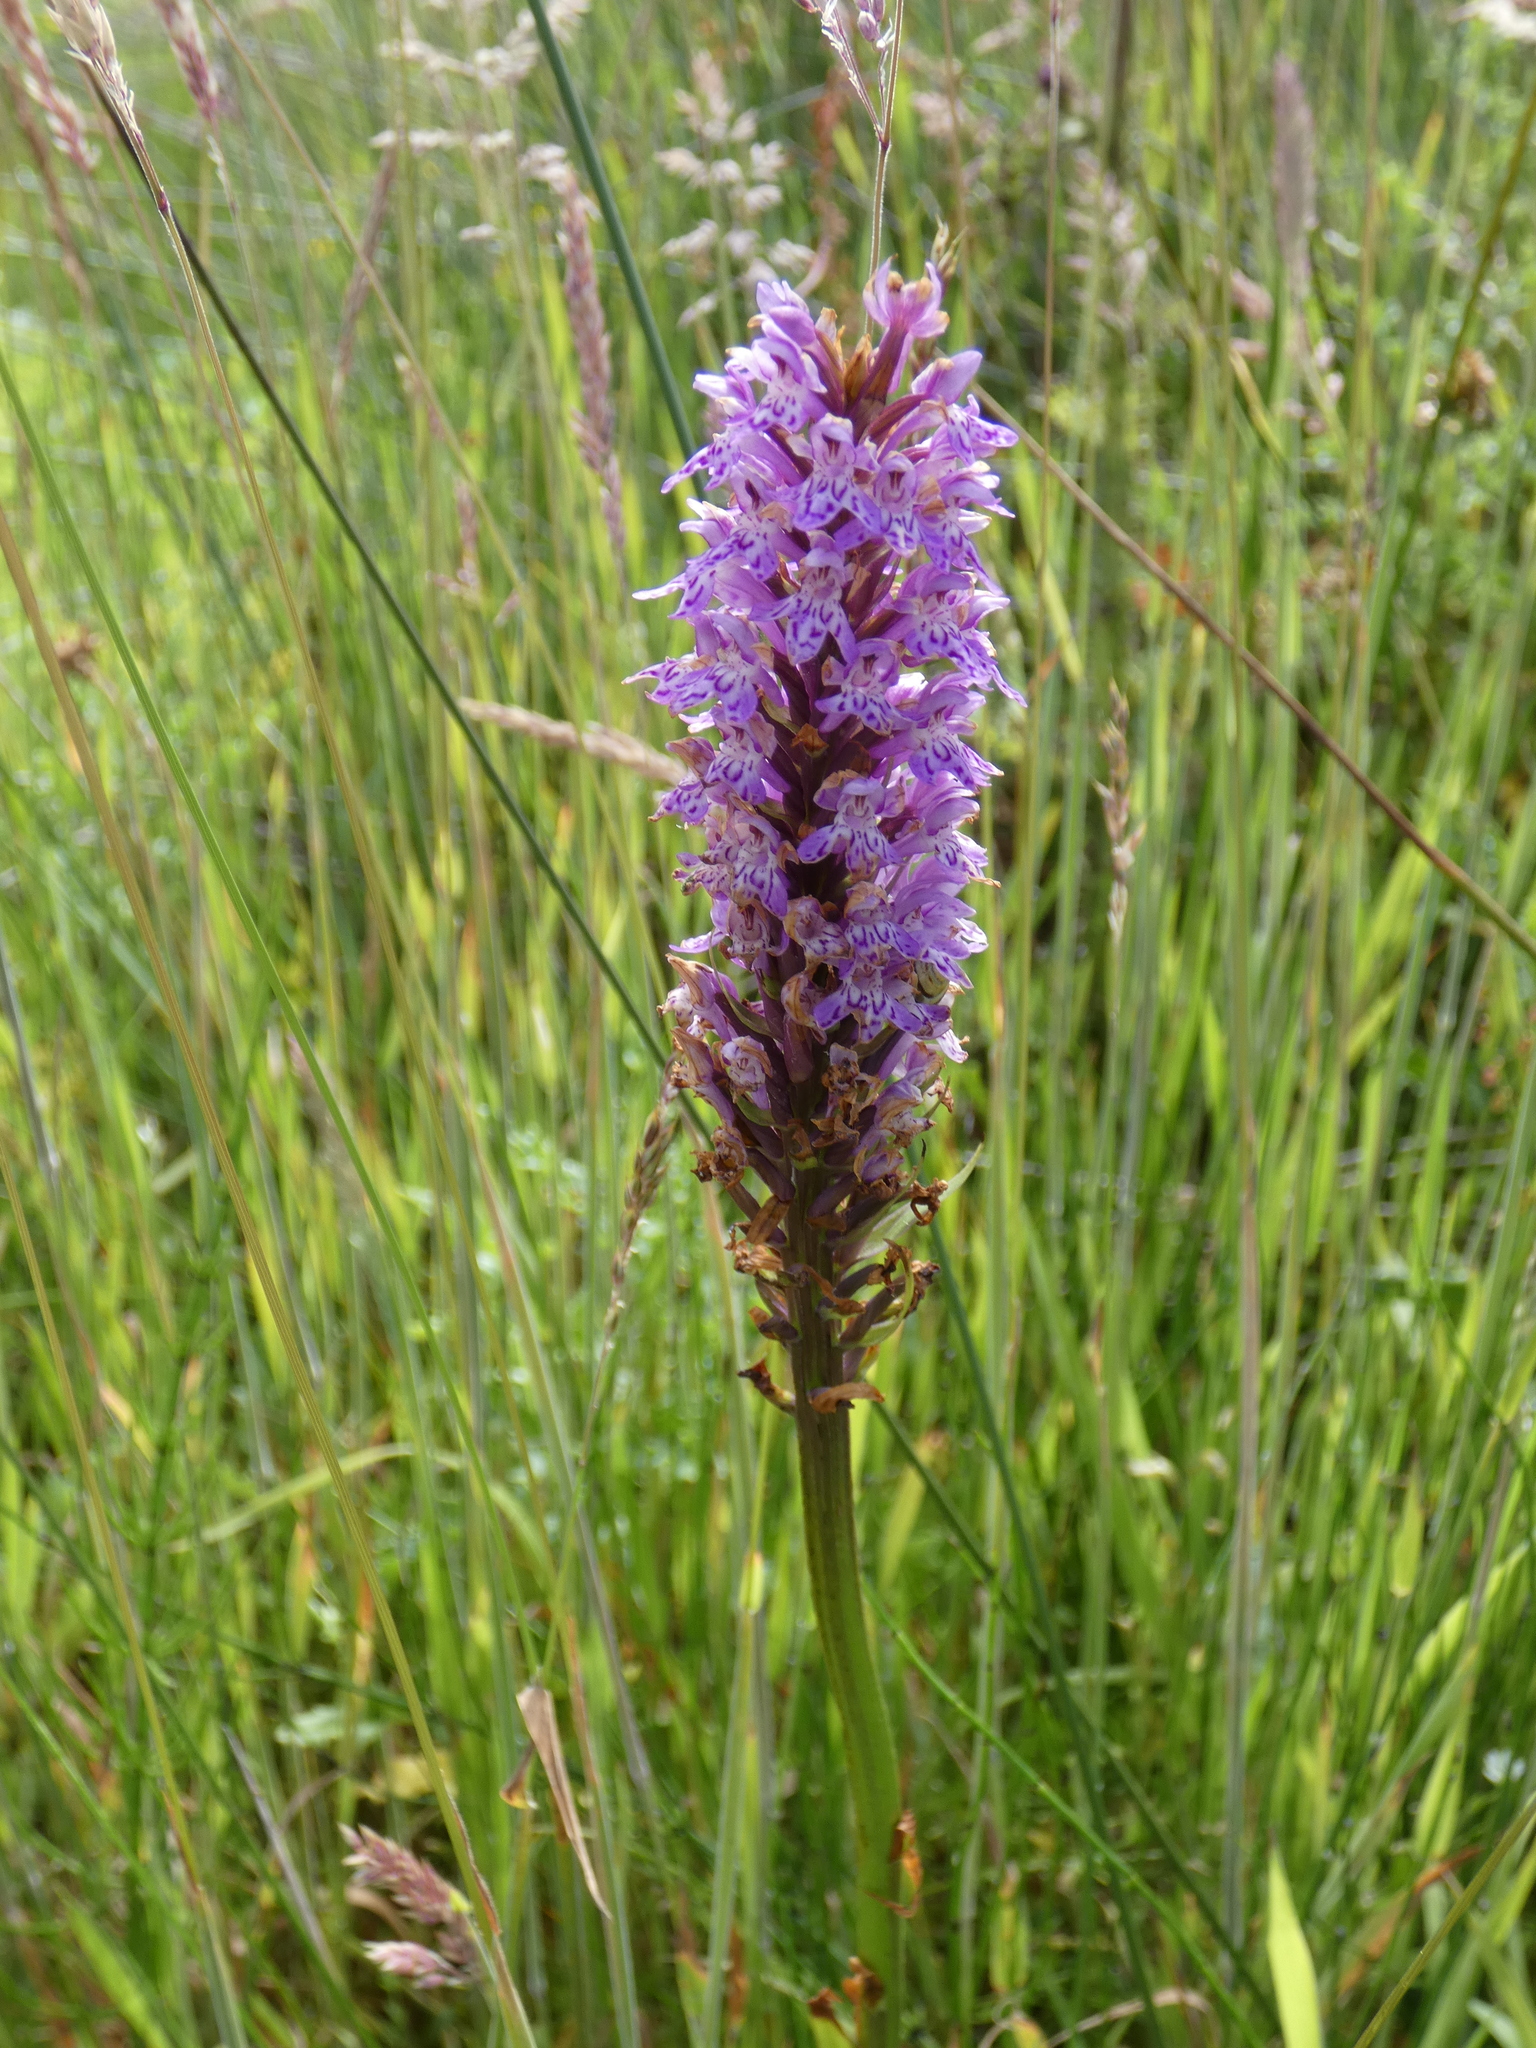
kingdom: Plantae
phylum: Tracheophyta
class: Liliopsida
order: Asparagales
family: Orchidaceae
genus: Dactylorhiza
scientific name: Dactylorhiza maculata
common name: Heath spotted-orchid
